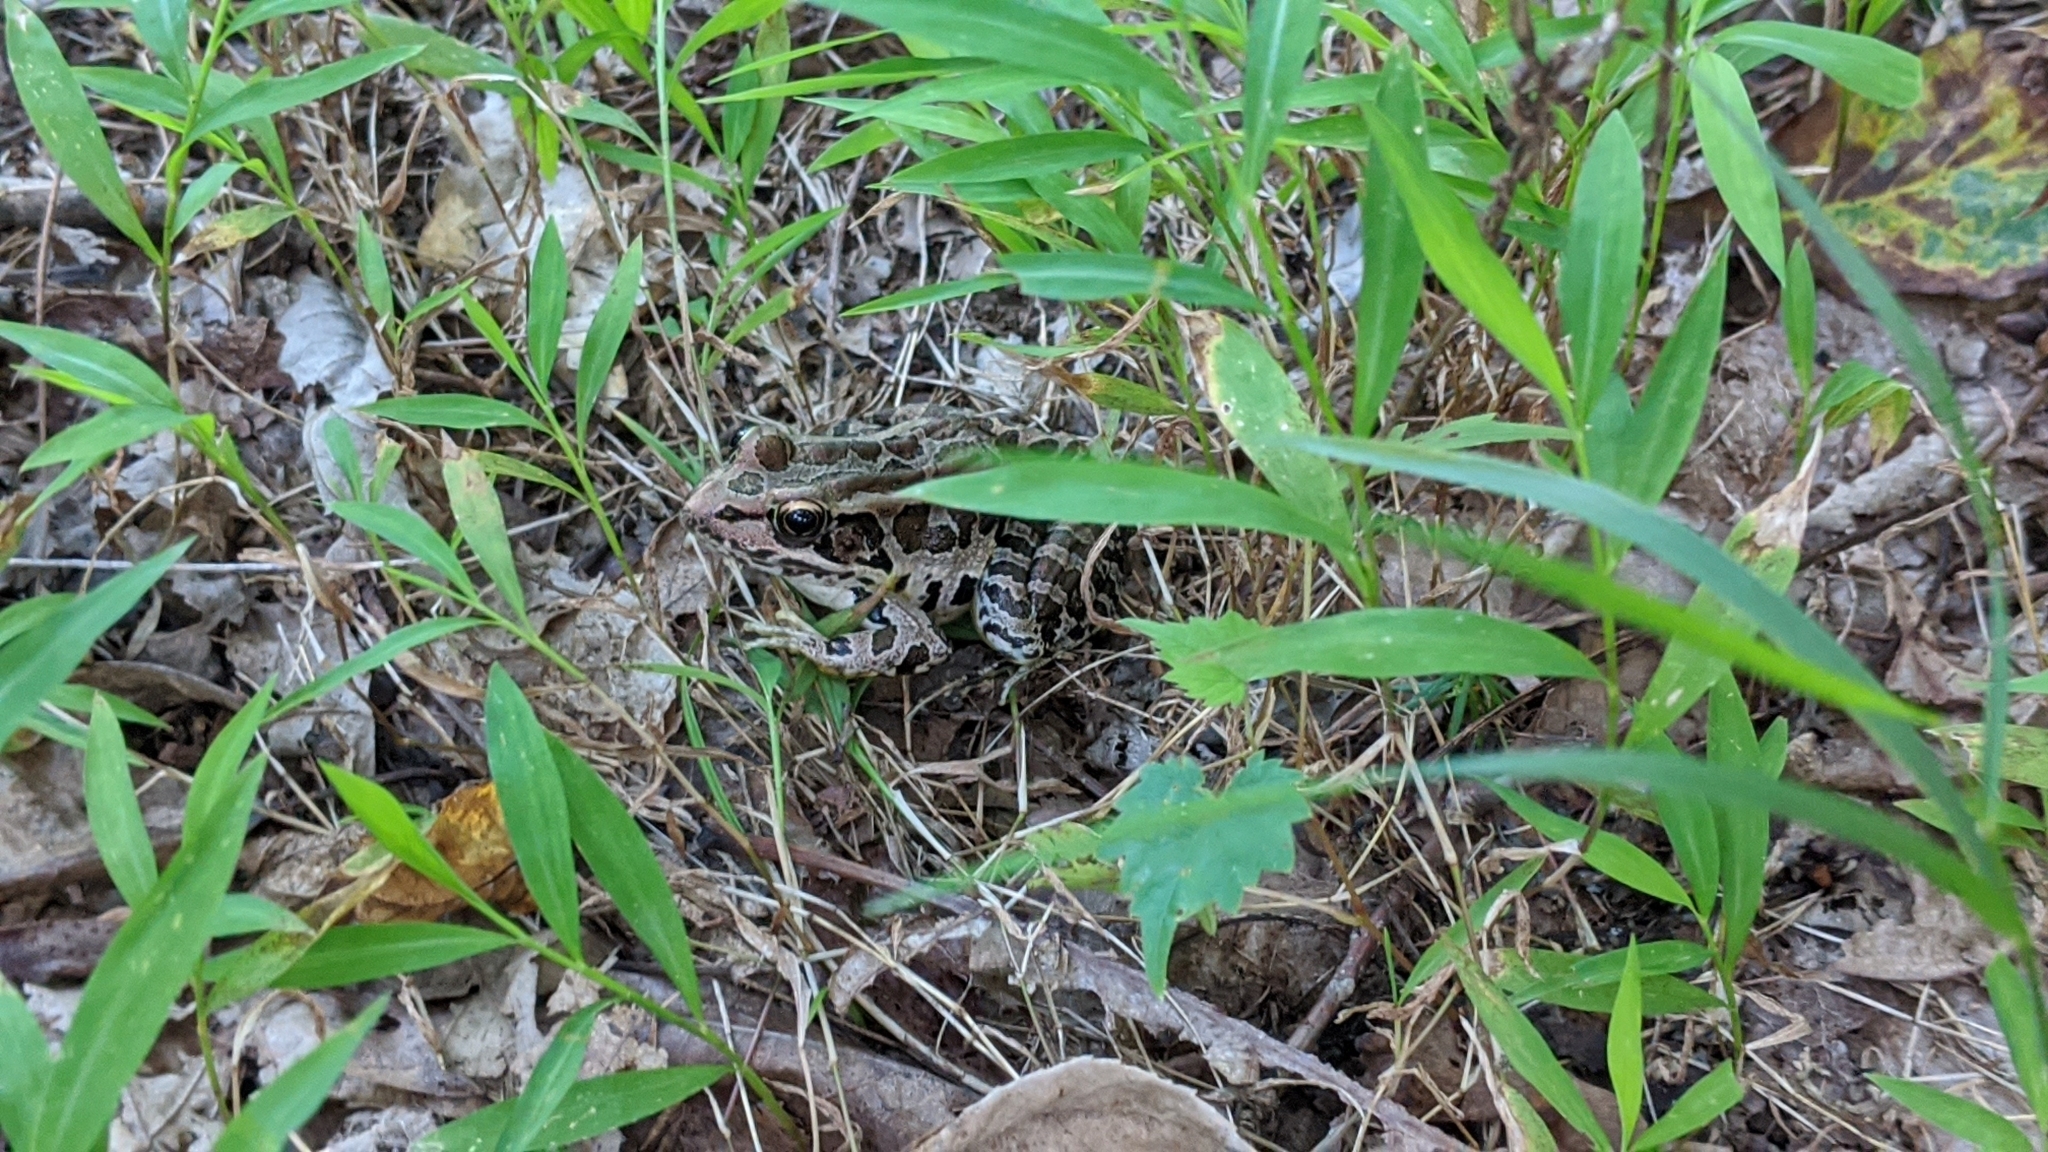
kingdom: Animalia
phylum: Chordata
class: Amphibia
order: Anura
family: Ranidae
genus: Lithobates
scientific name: Lithobates palustris
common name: Pickerel frog
